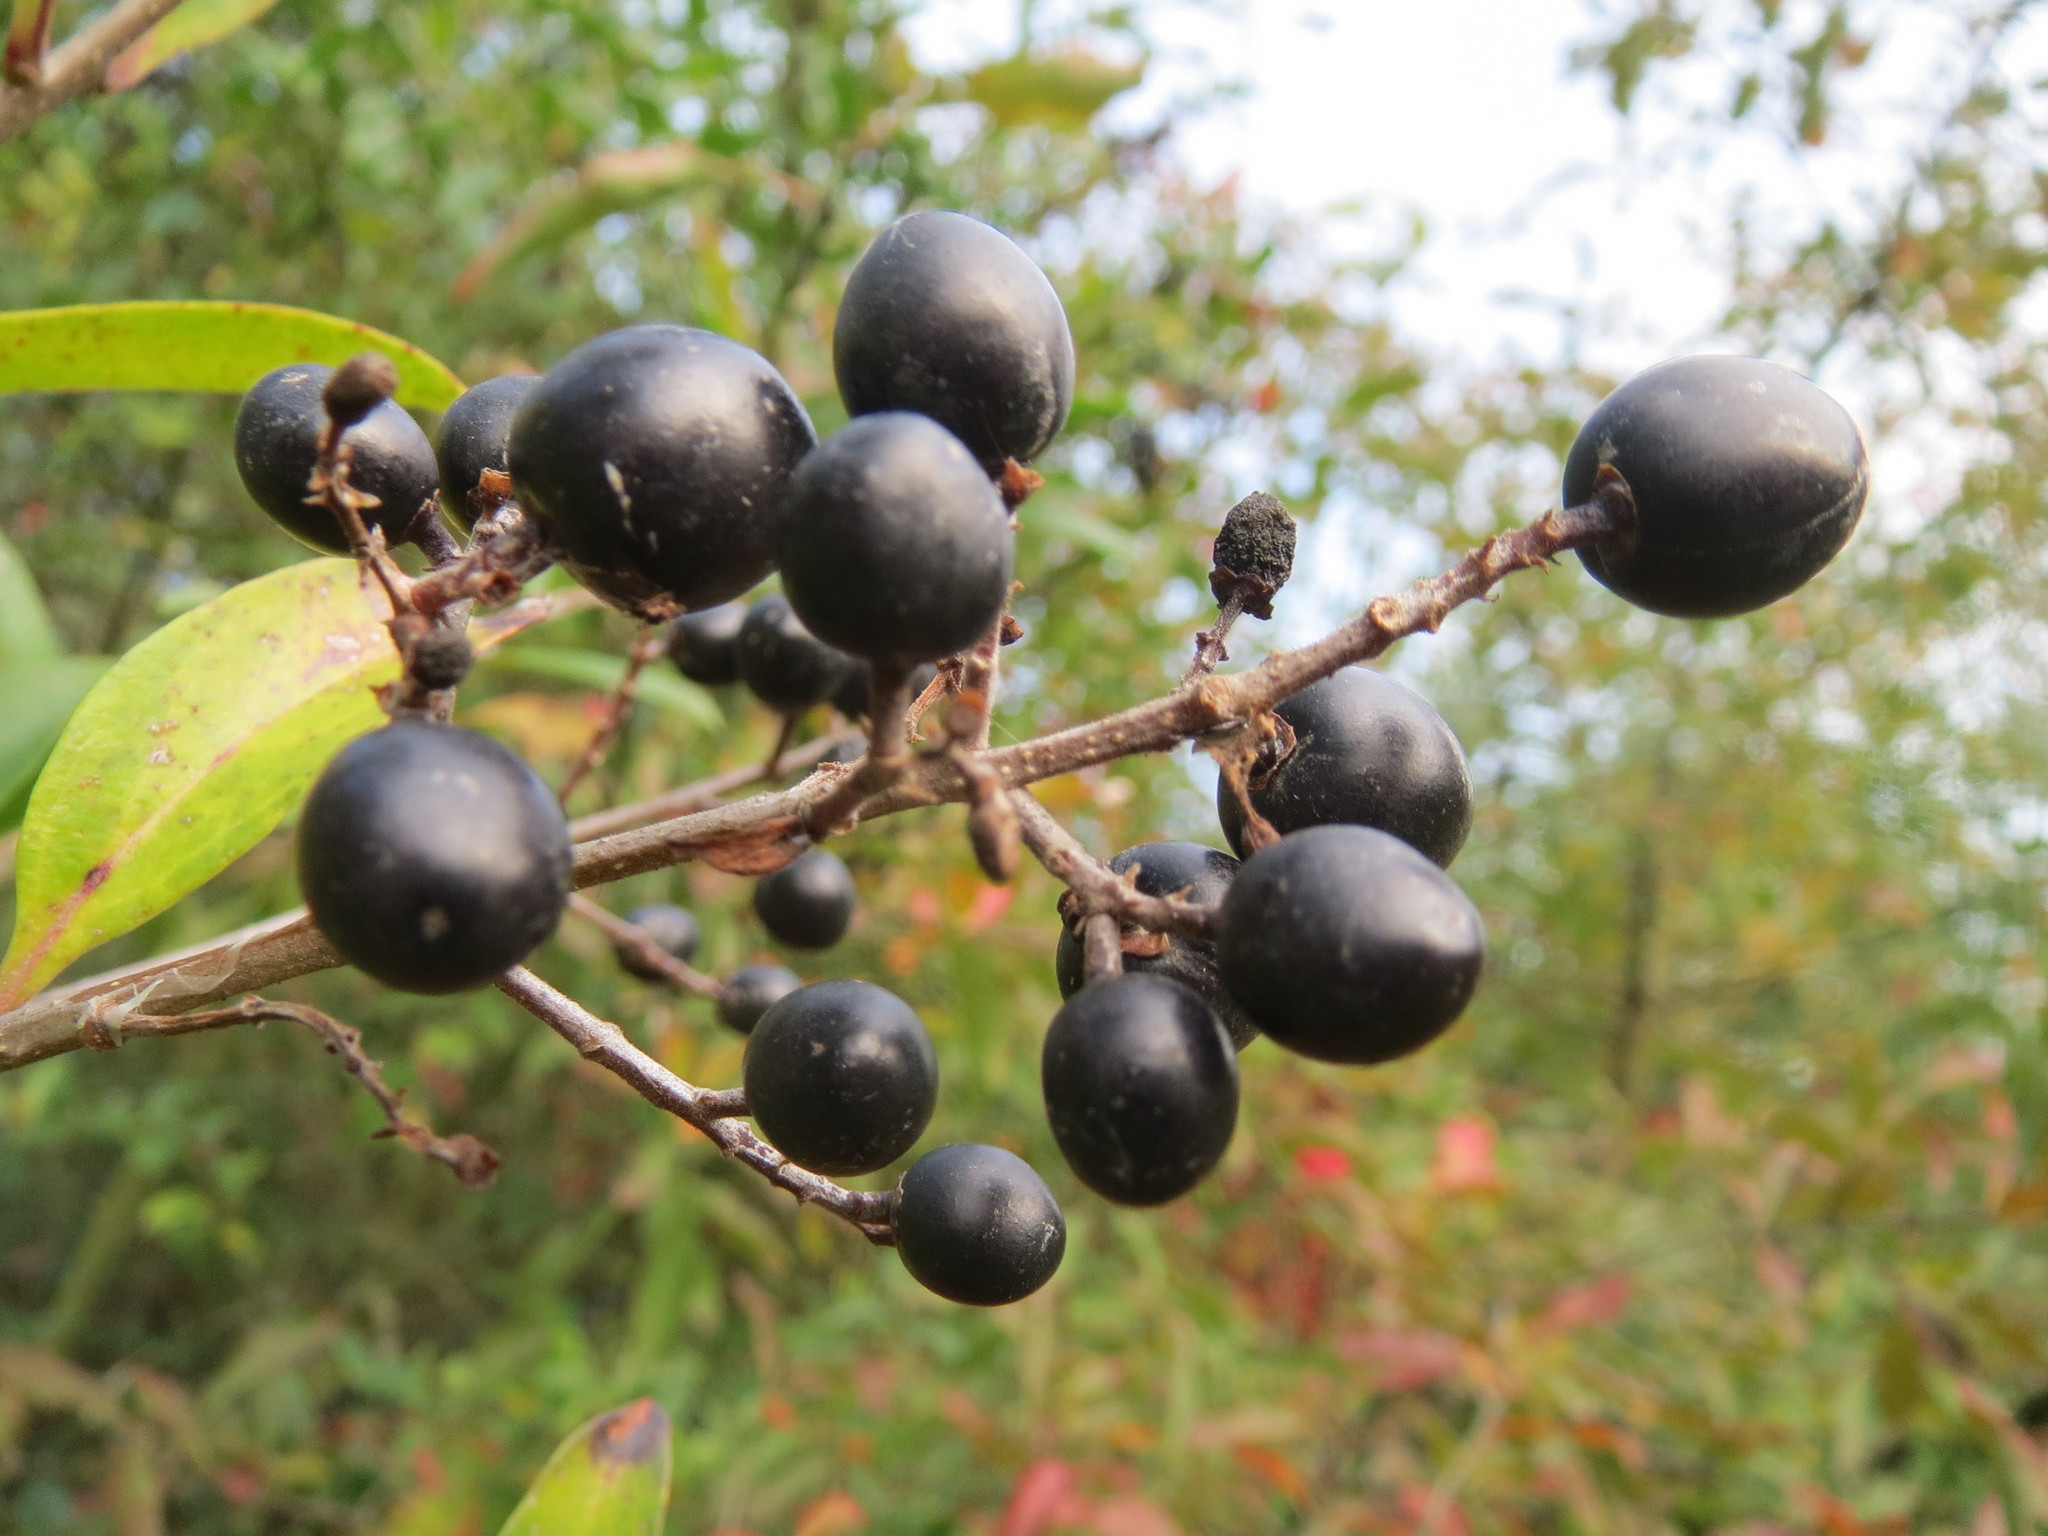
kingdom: Plantae
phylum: Tracheophyta
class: Magnoliopsida
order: Lamiales
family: Oleaceae
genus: Ligustrum
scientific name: Ligustrum vulgare
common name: Wild privet
